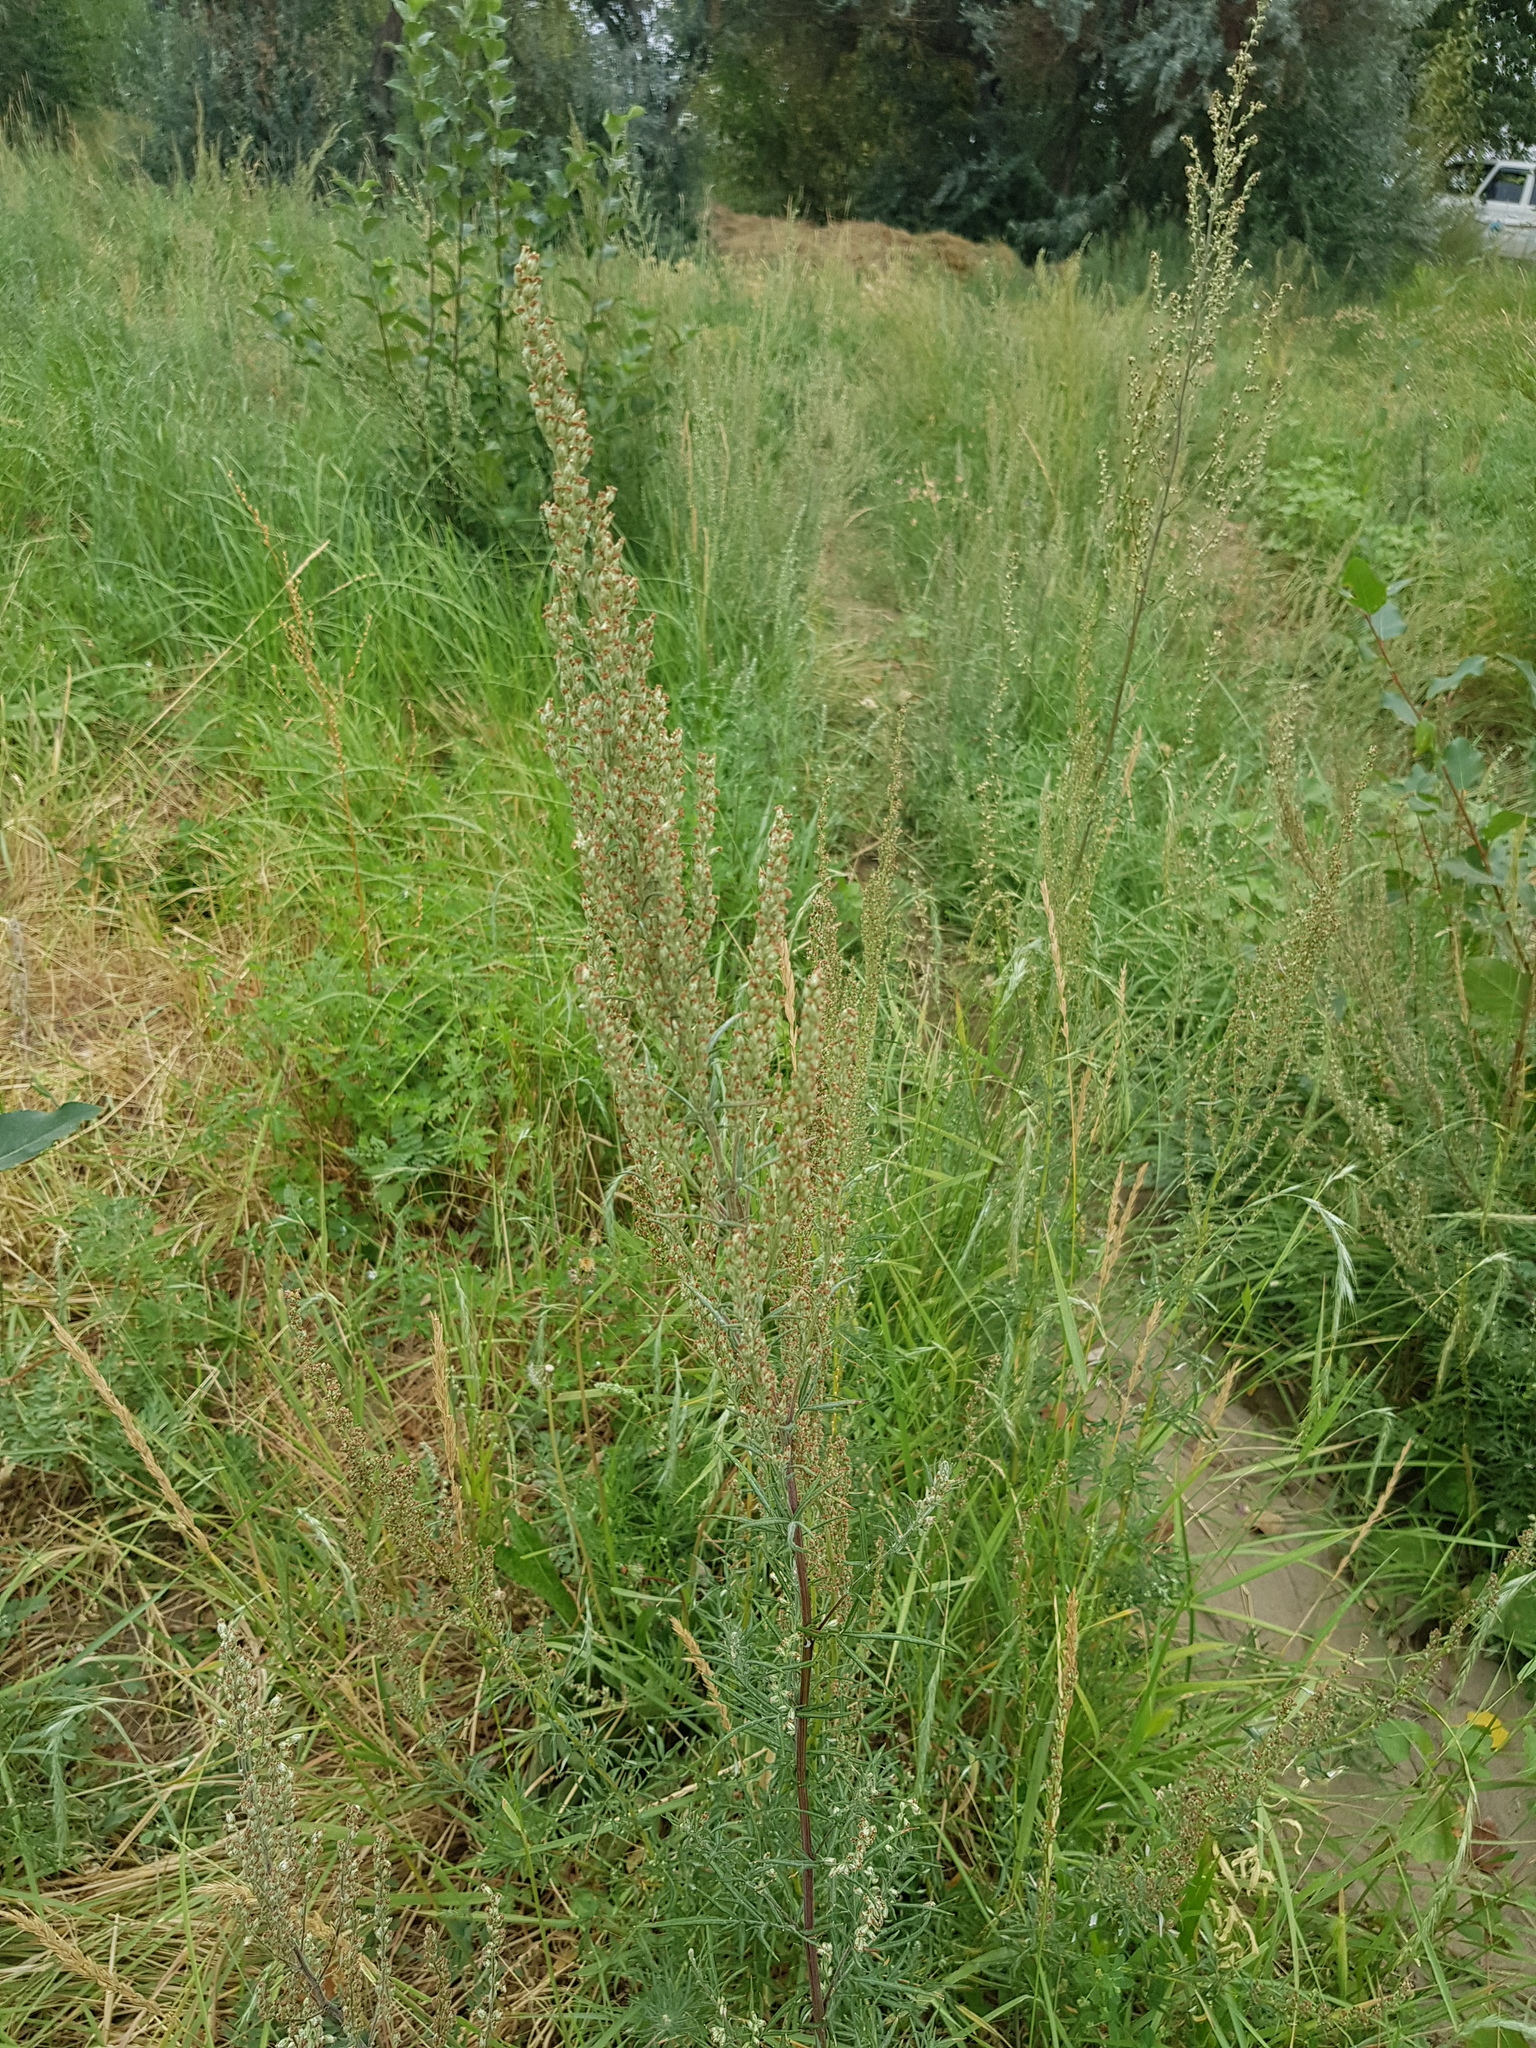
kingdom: Plantae
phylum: Tracheophyta
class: Magnoliopsida
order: Asterales
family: Asteraceae
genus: Artemisia
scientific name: Artemisia vulgaris
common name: Mugwort
